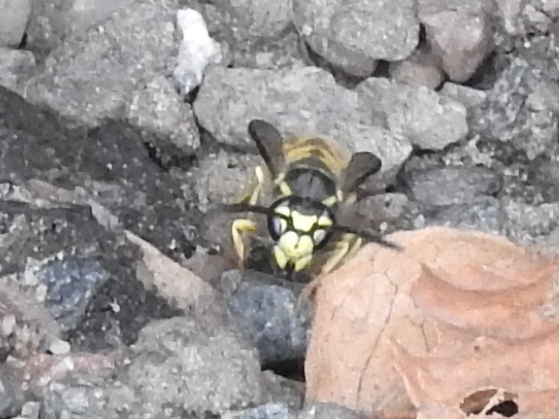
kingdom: Animalia
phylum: Arthropoda
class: Insecta
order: Hymenoptera
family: Vespidae
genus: Vespula
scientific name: Vespula germanica
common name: German wasp
